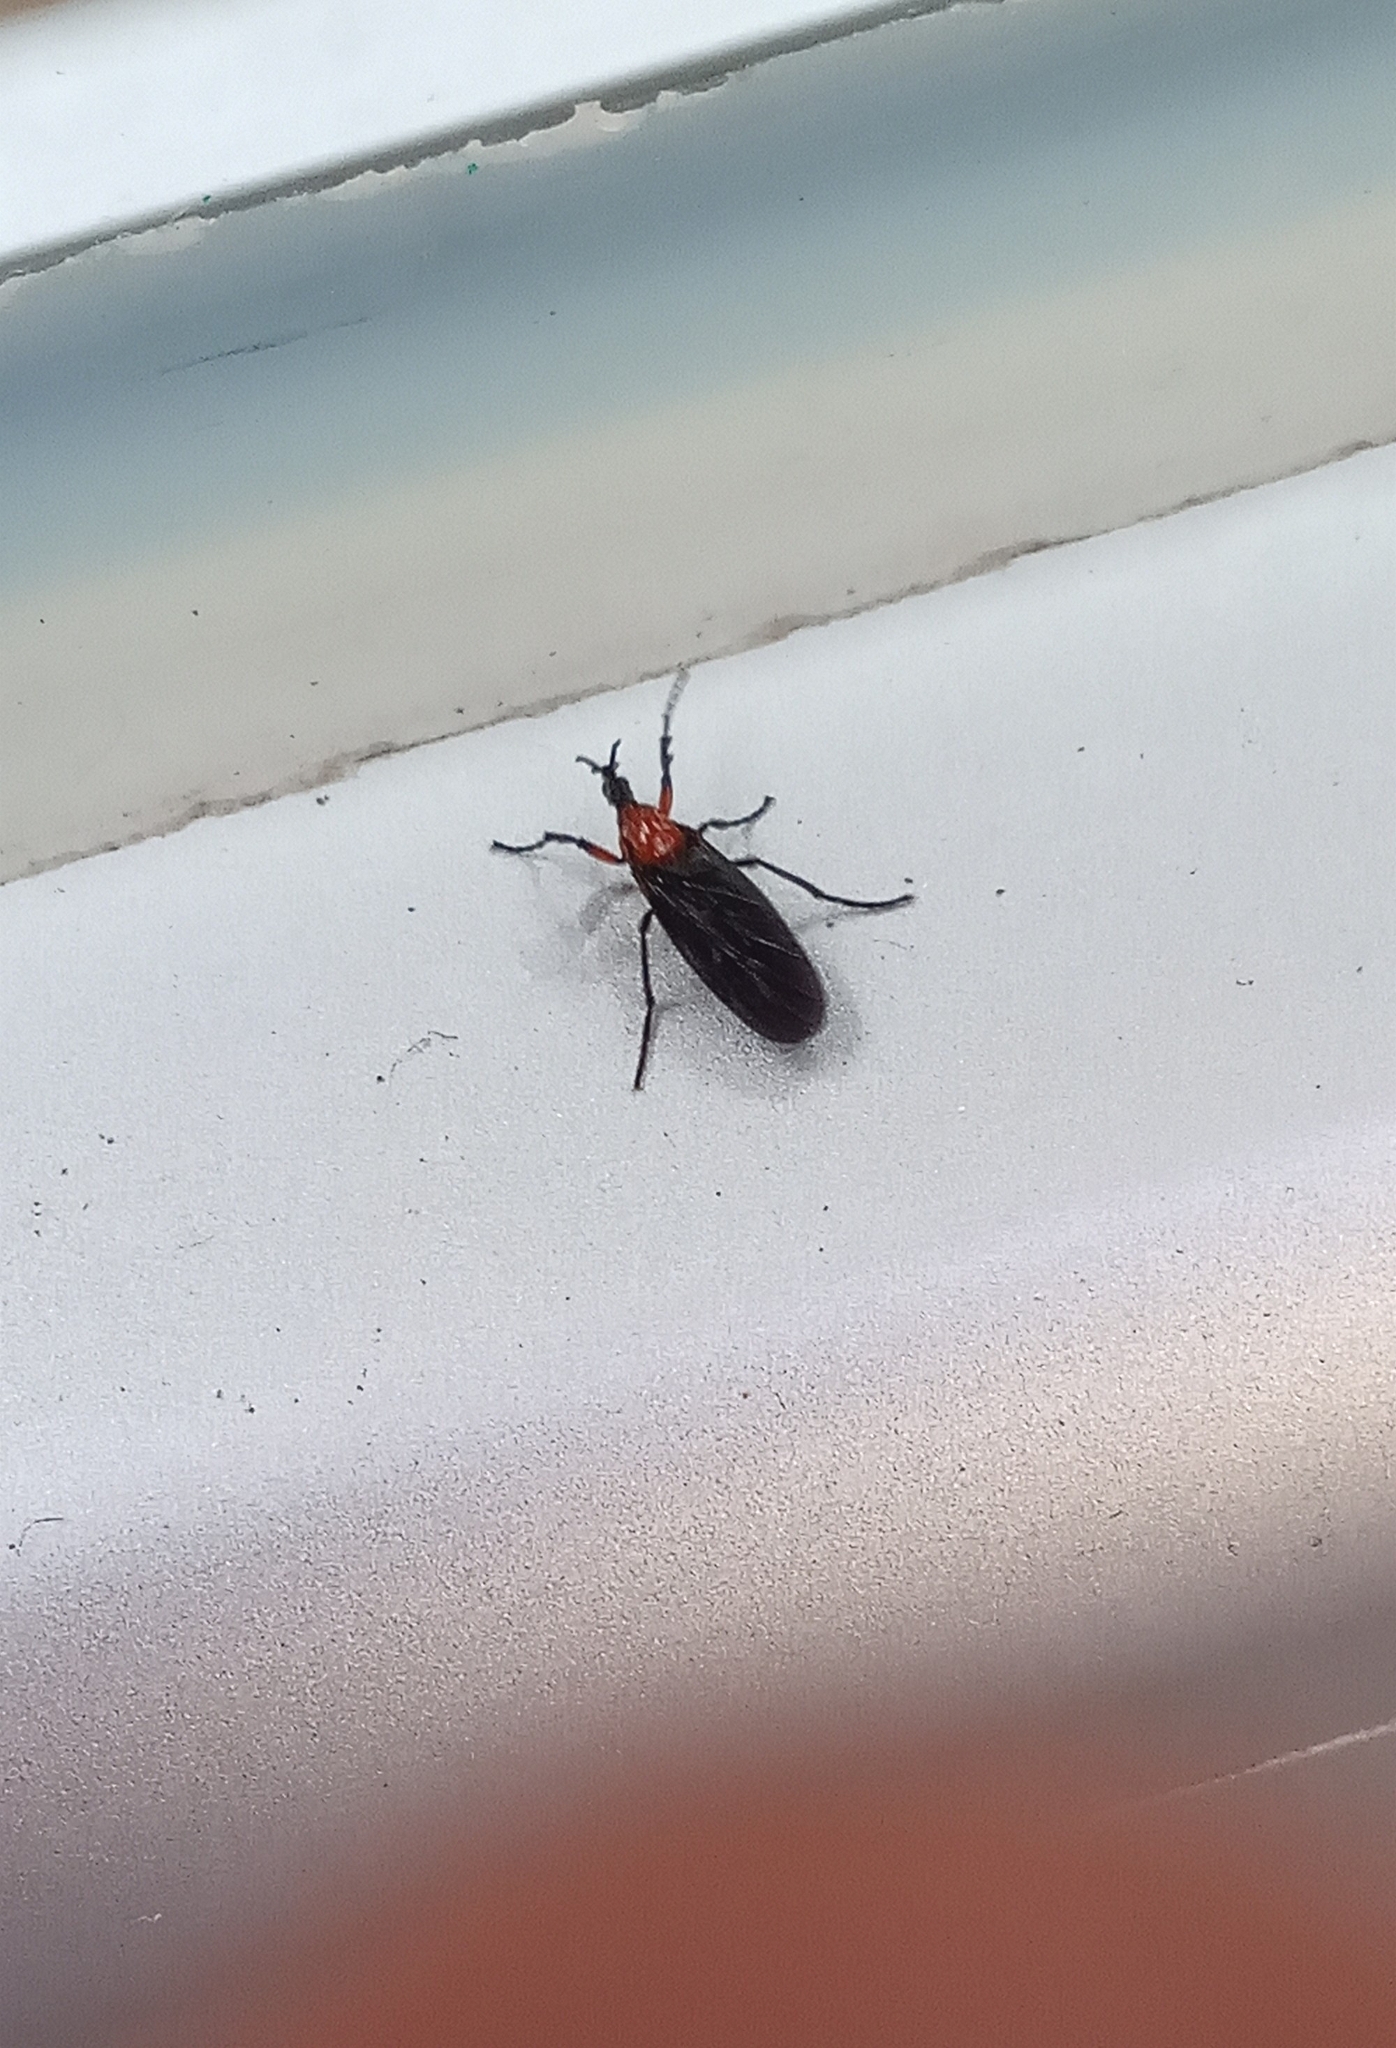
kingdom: Animalia
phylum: Arthropoda
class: Insecta
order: Diptera
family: Bibionidae
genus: Dilophus
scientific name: Dilophus pectoralis
